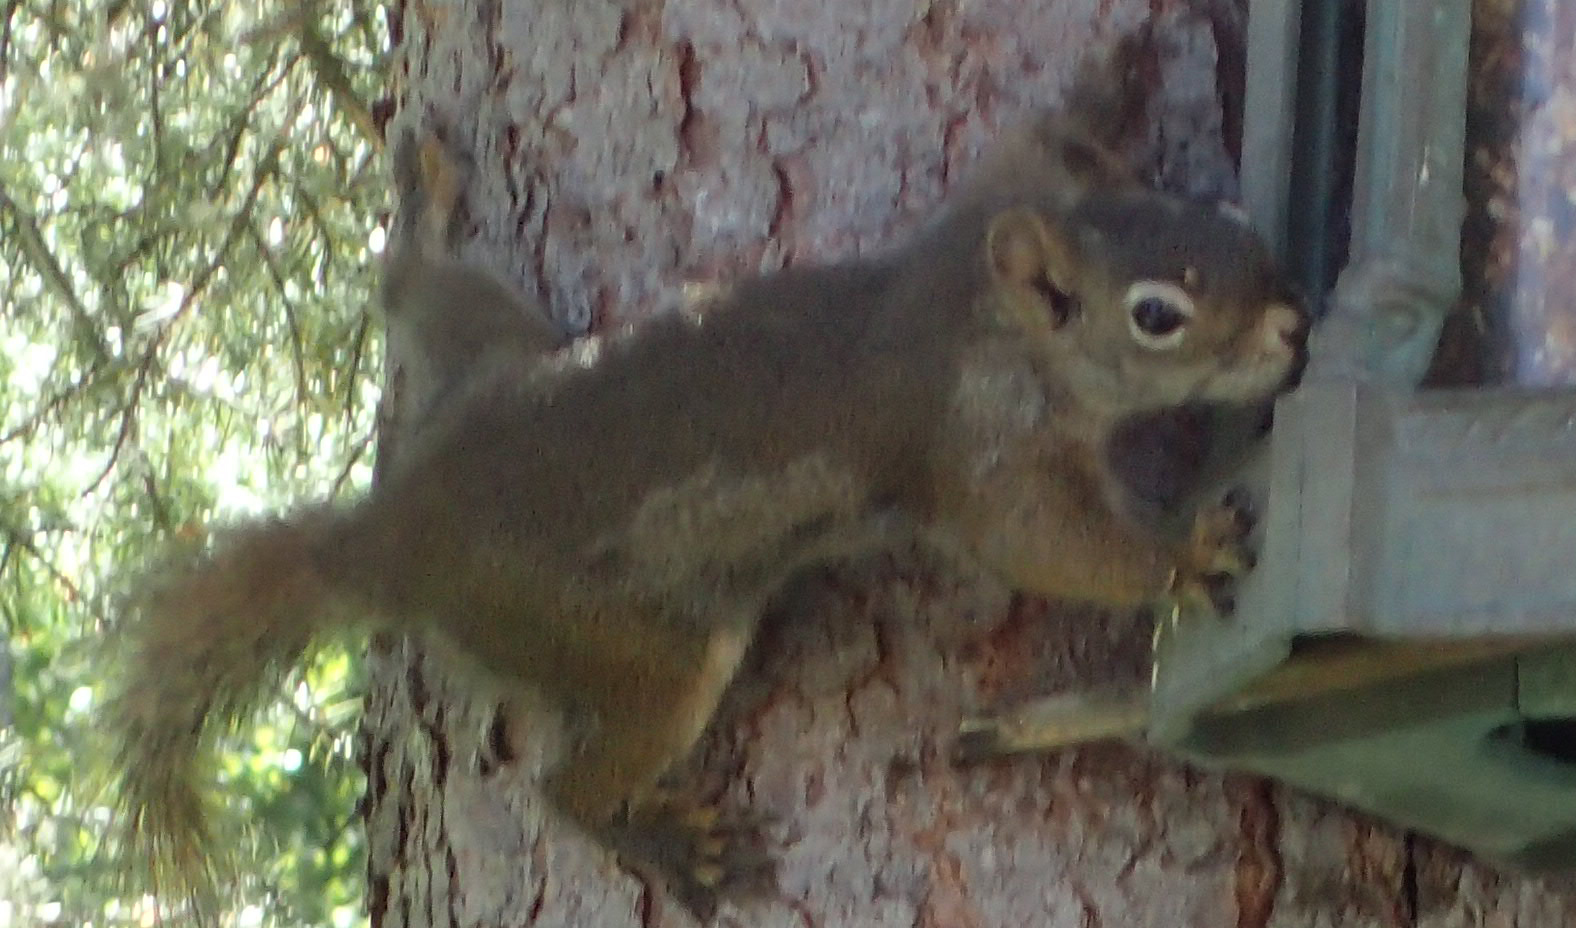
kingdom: Animalia
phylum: Chordata
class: Mammalia
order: Rodentia
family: Sciuridae
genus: Tamiasciurus
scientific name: Tamiasciurus hudsonicus
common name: Red squirrel
